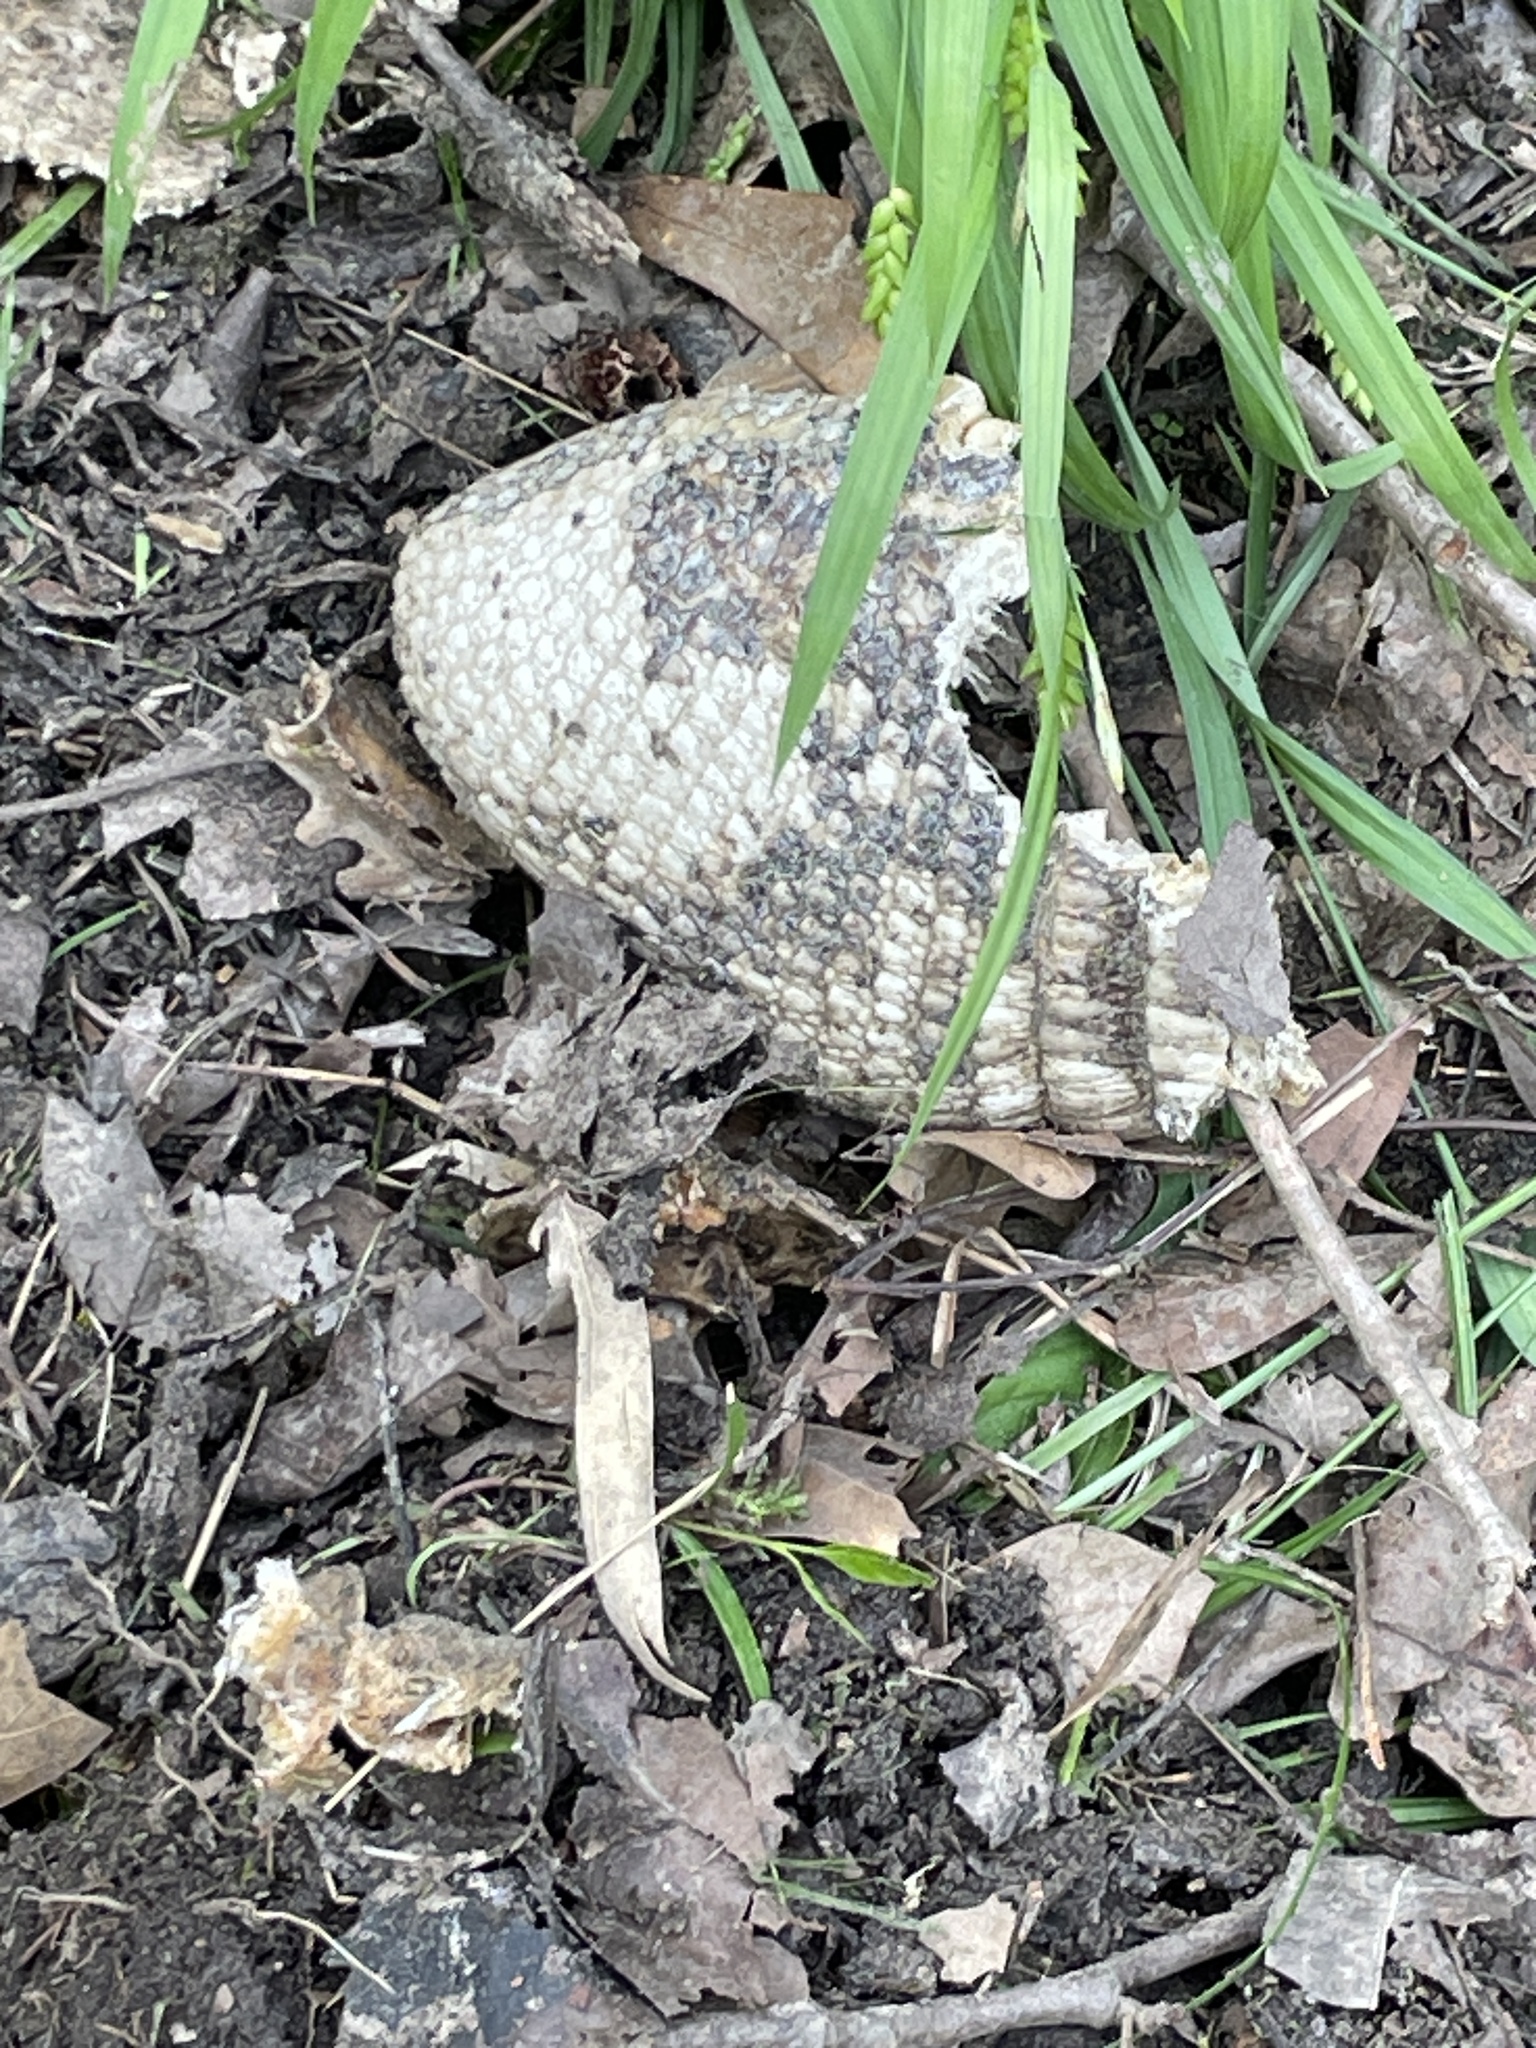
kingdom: Animalia
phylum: Chordata
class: Mammalia
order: Cingulata
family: Dasypodidae
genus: Dasypus
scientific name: Dasypus novemcinctus
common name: Nine-banded armadillo
